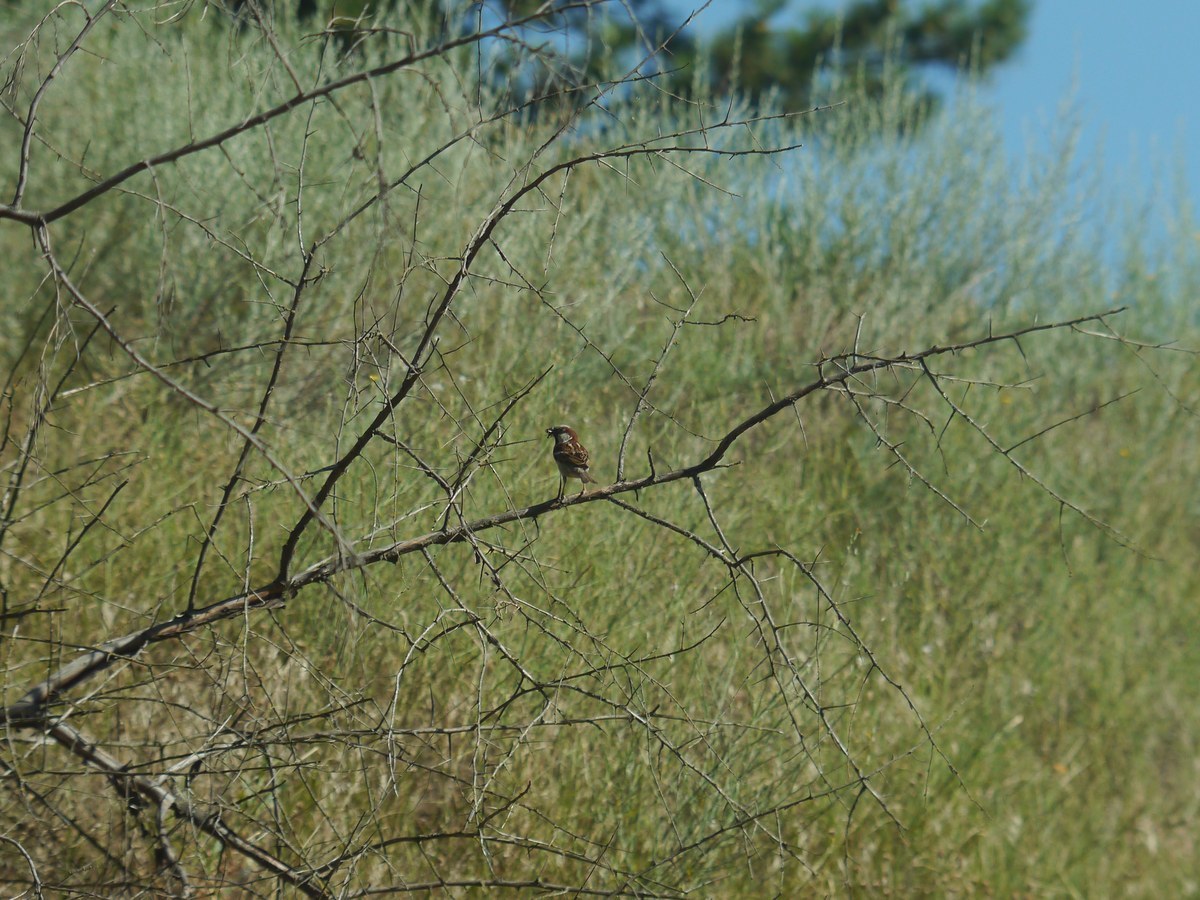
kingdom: Animalia
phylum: Chordata
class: Aves
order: Passeriformes
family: Passeridae
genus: Passer
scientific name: Passer domesticus
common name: House sparrow
